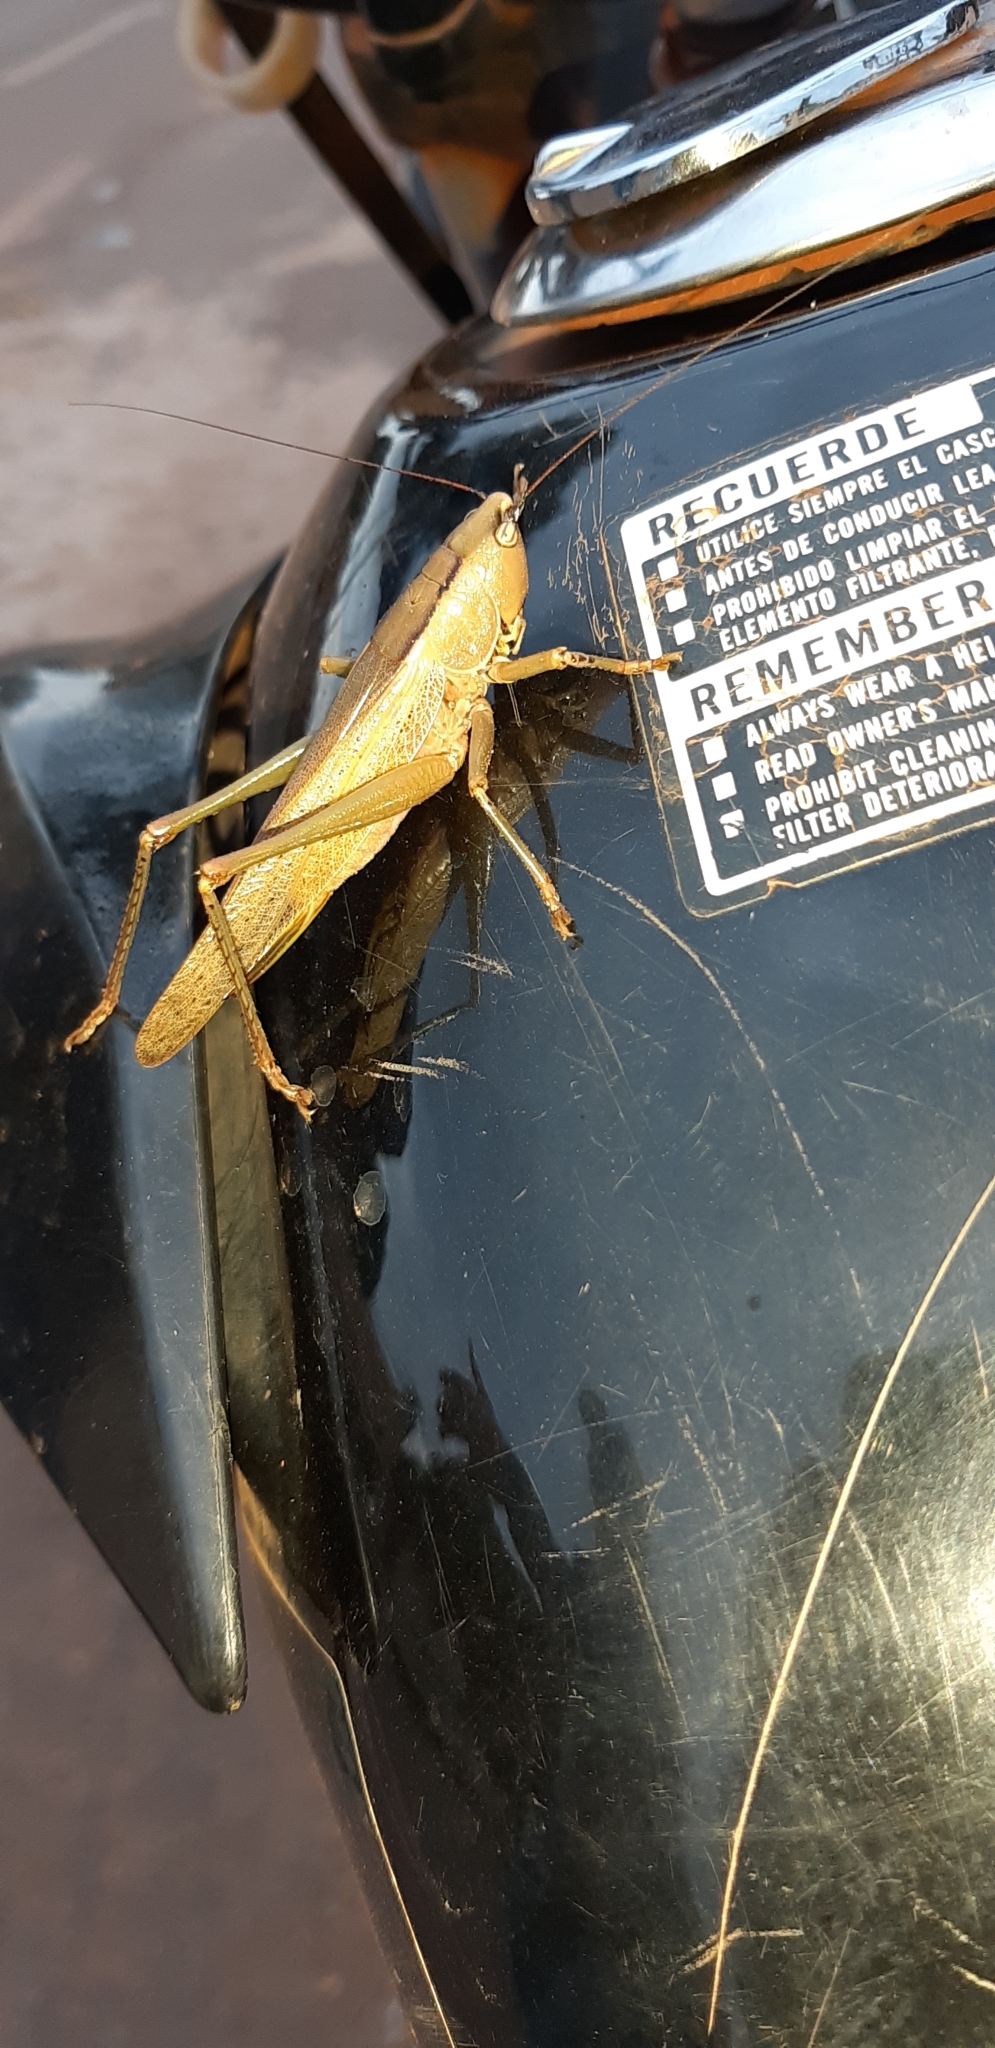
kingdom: Animalia
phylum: Arthropoda
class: Insecta
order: Orthoptera
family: Tettigoniidae
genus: Parabucrates
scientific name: Parabucrates brevicauda
